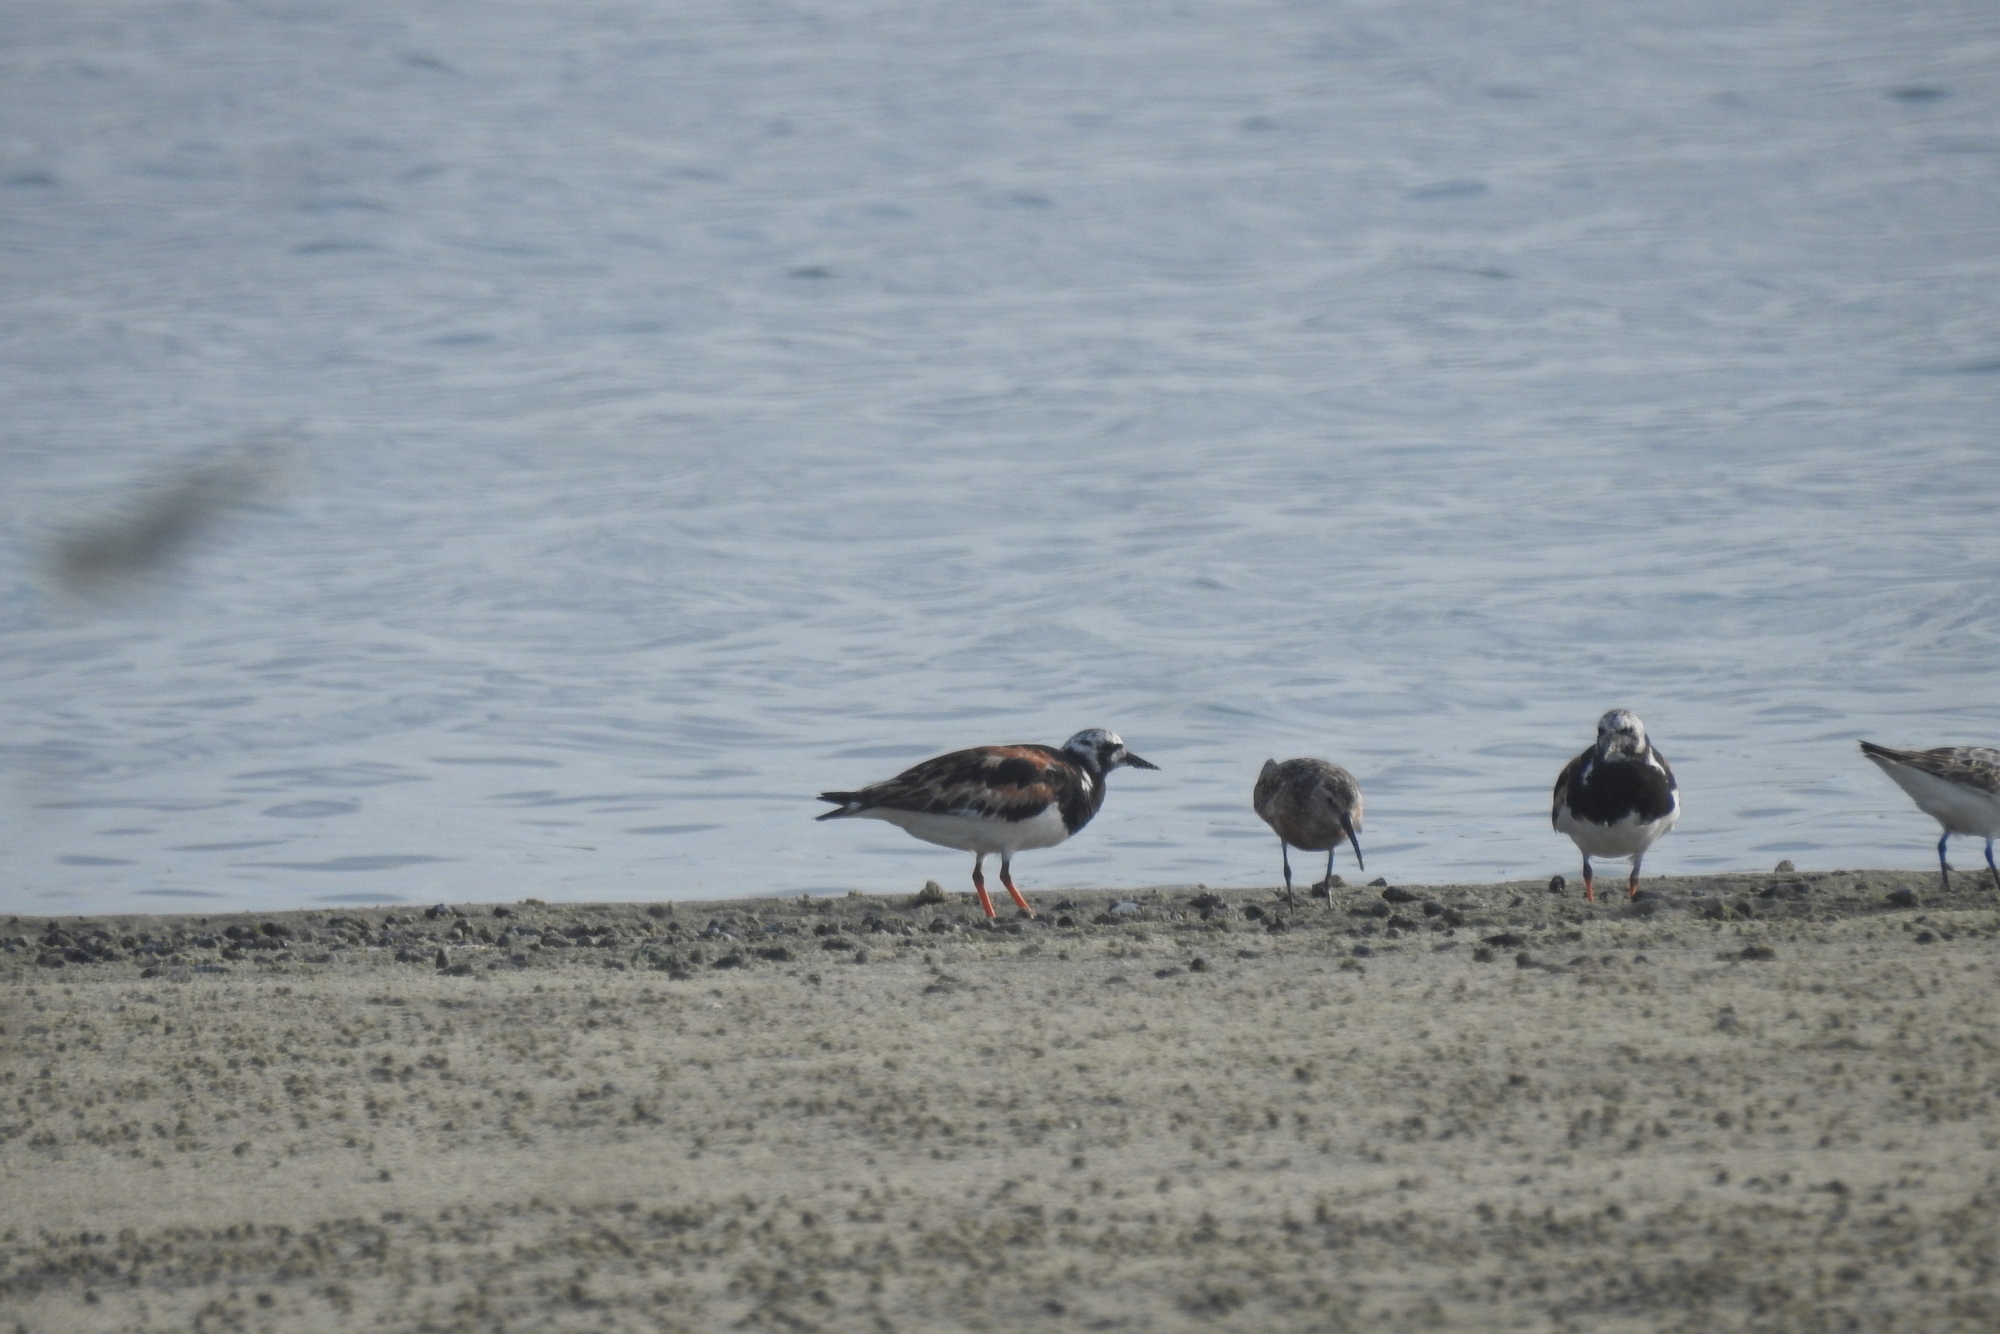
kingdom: Animalia
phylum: Chordata
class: Aves
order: Charadriiformes
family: Scolopacidae
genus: Arenaria
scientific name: Arenaria interpres
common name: Ruddy turnstone
